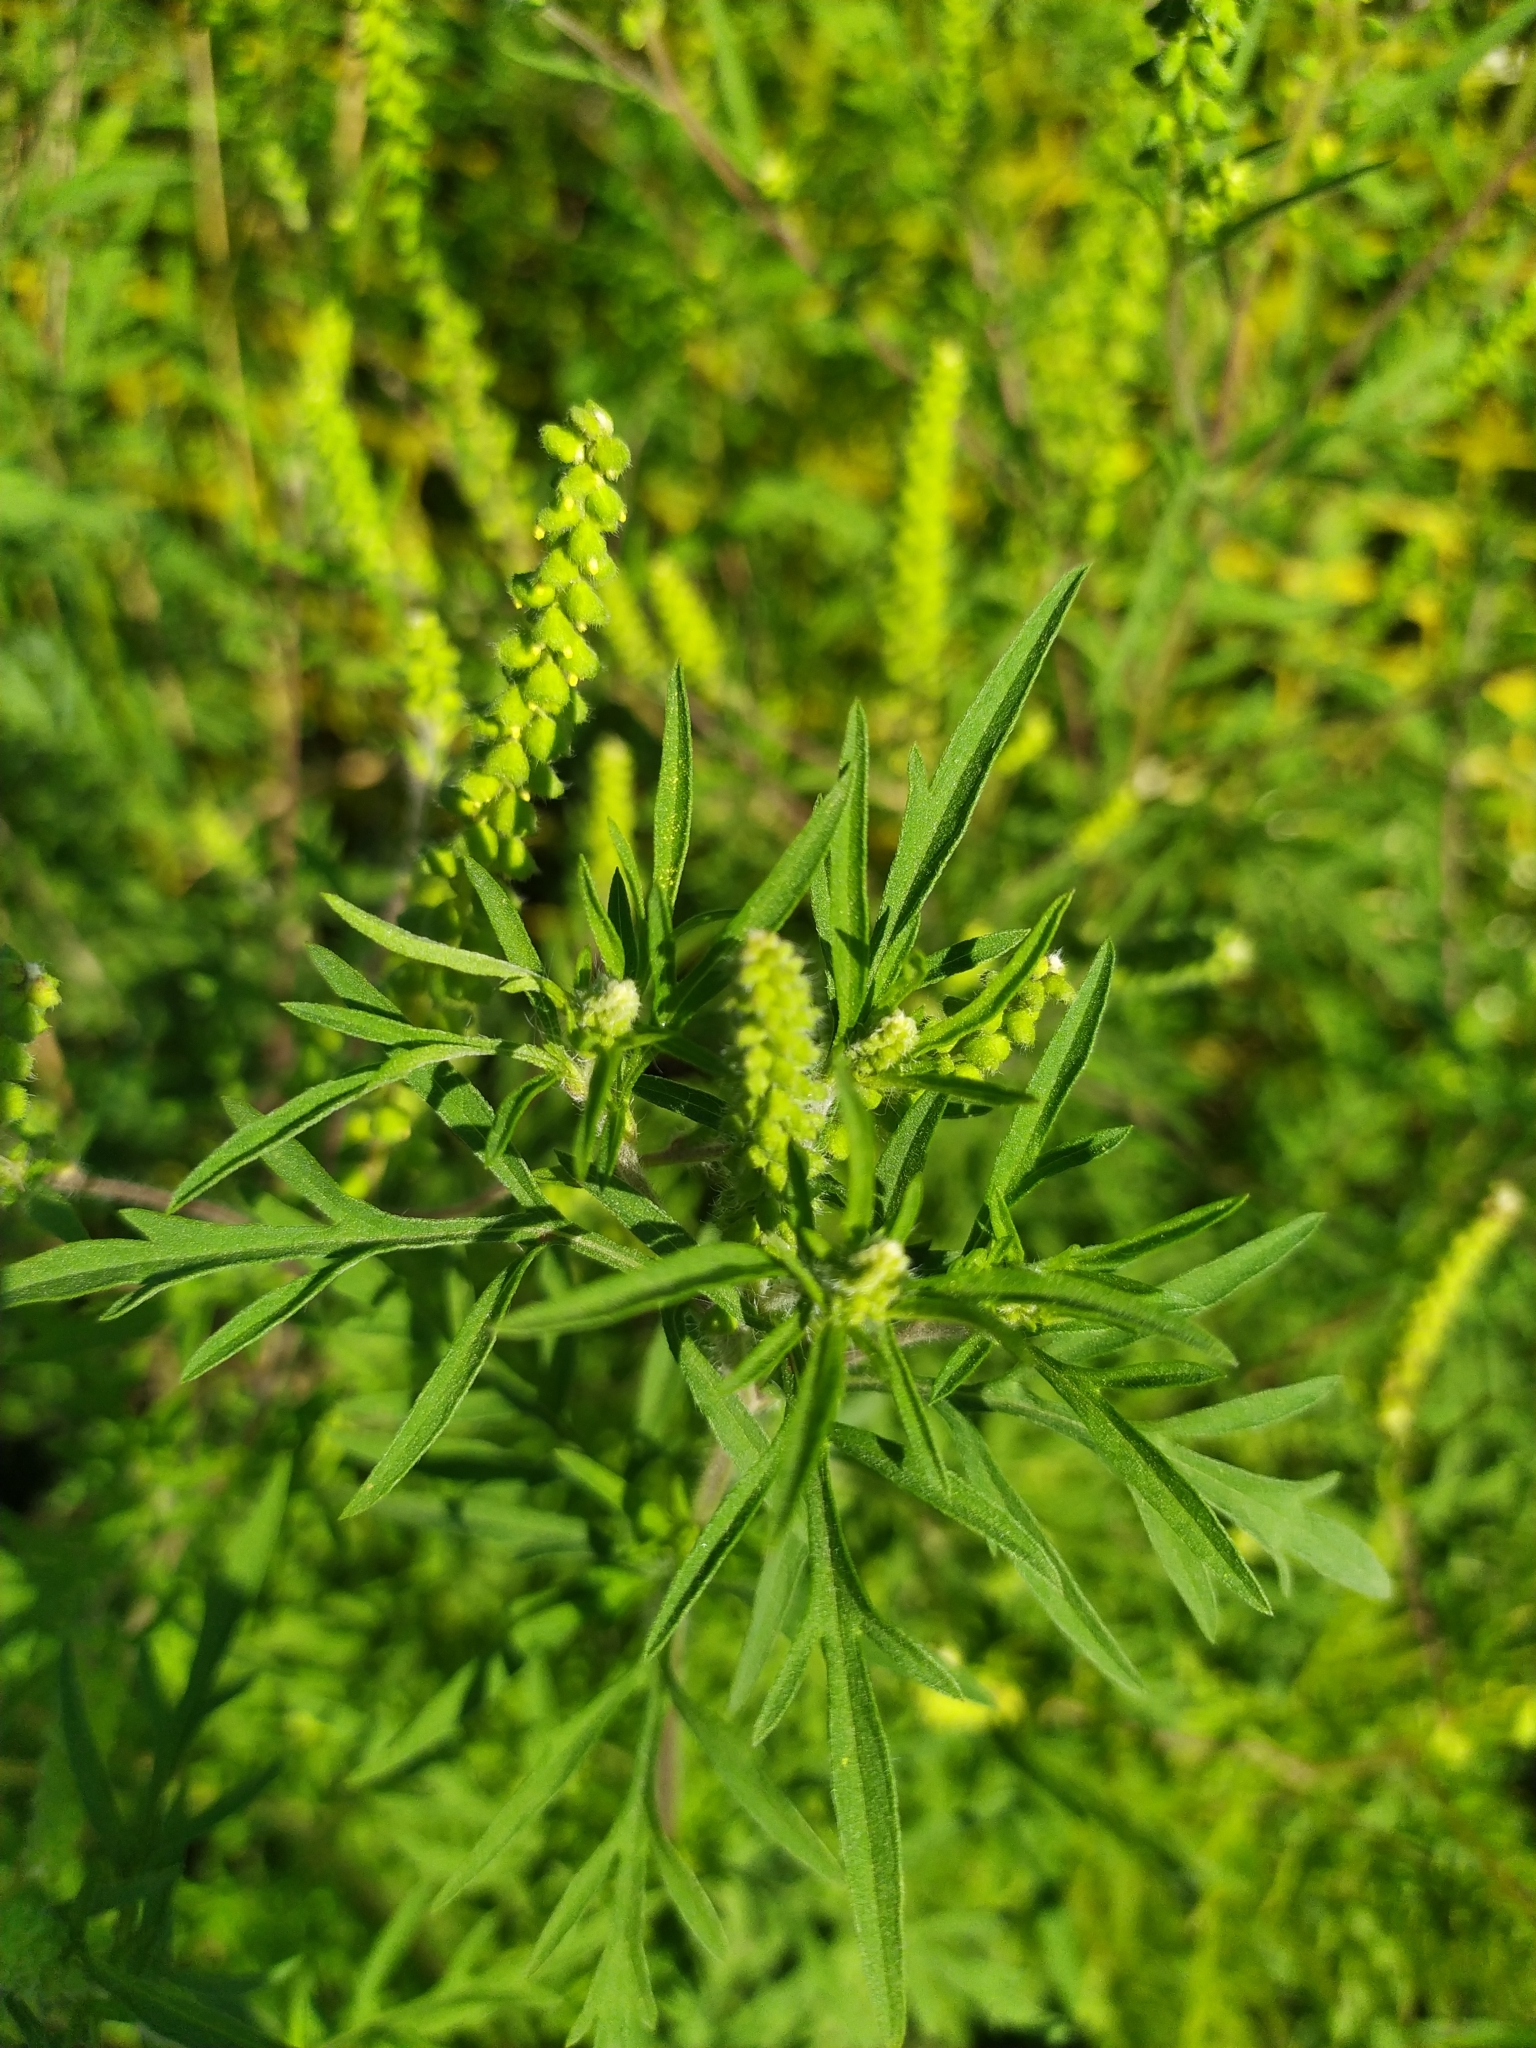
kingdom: Plantae
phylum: Tracheophyta
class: Magnoliopsida
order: Asterales
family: Asteraceae
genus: Ambrosia
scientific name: Ambrosia artemisiifolia
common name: Annual ragweed
